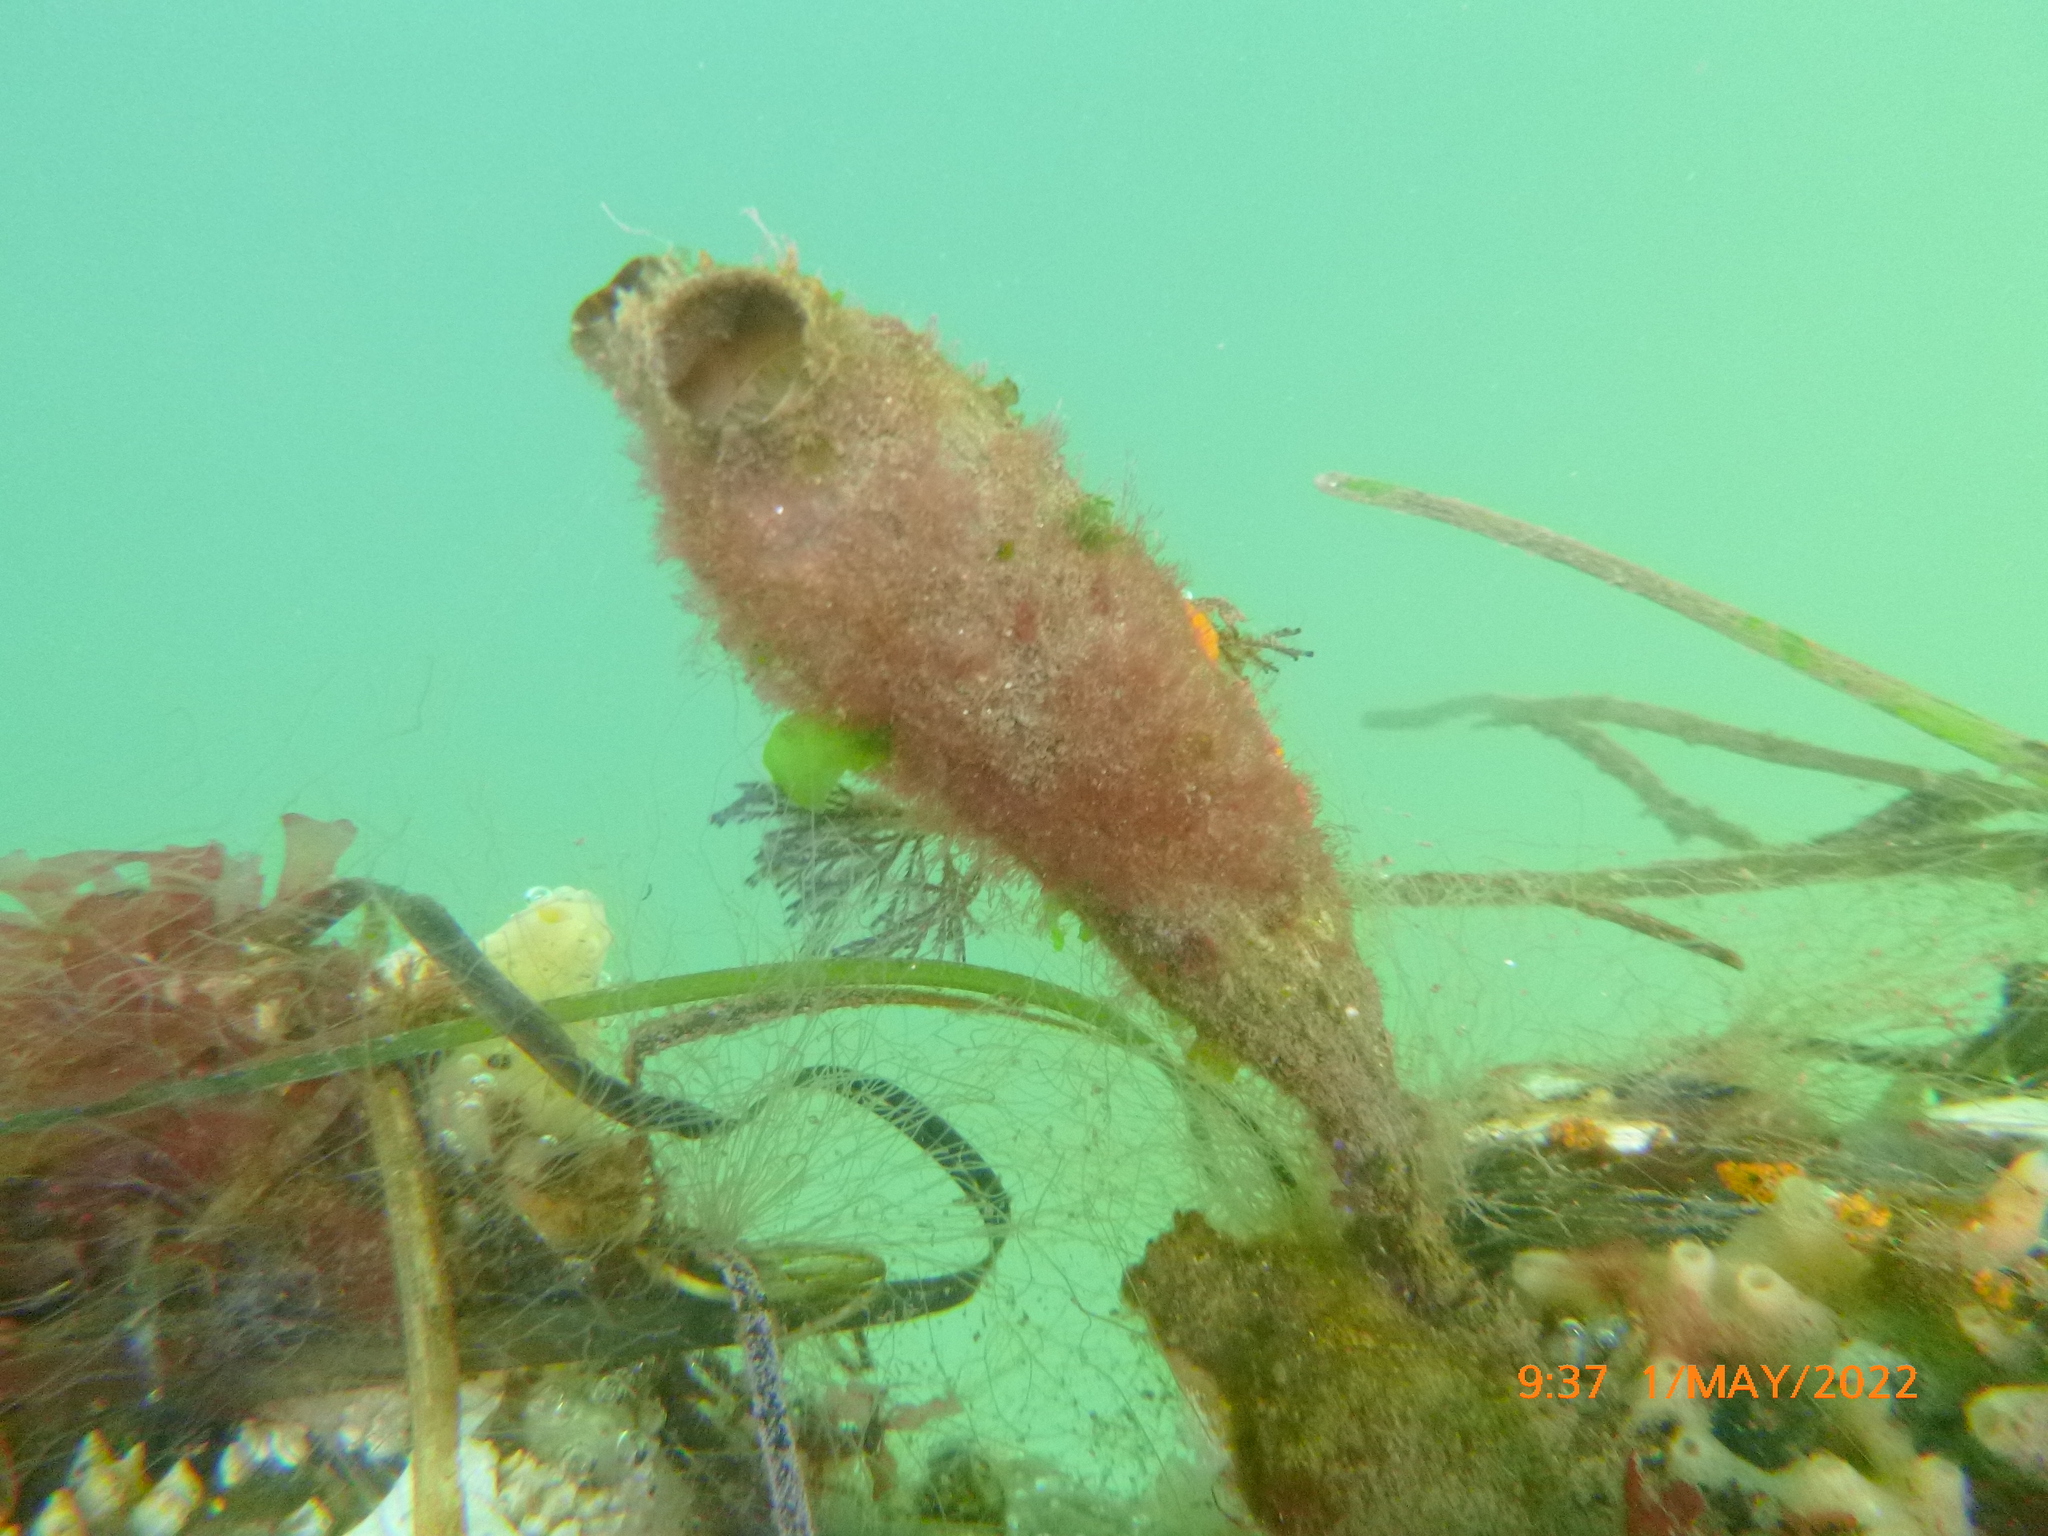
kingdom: Animalia
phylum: Chordata
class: Ascidiacea
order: Stolidobranchia
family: Styelidae
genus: Styela
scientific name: Styela clava
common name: Leathery sea squirt
